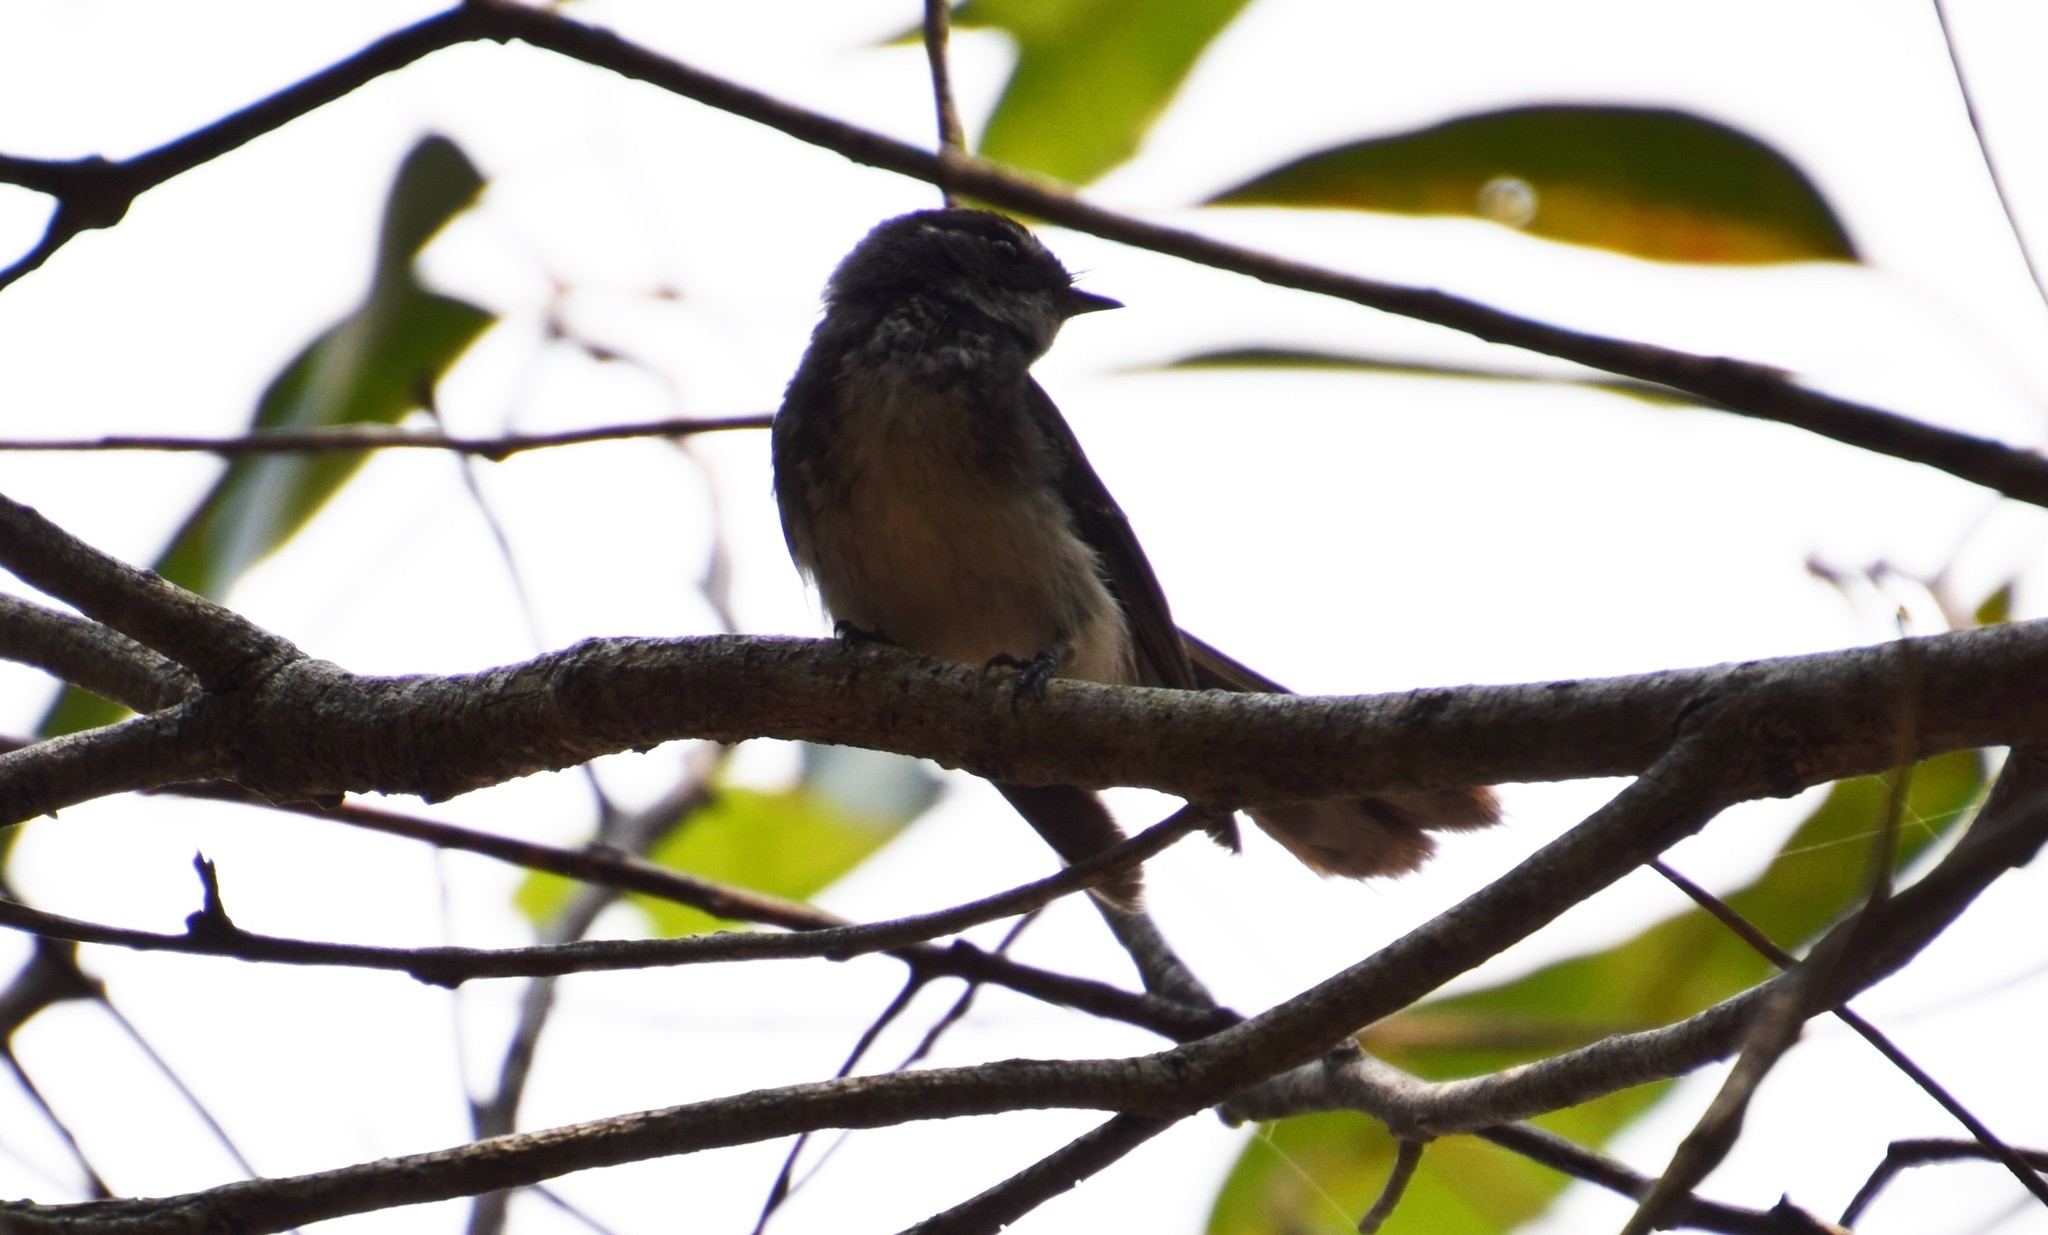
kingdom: Animalia
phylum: Chordata
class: Aves
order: Passeriformes
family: Rhipiduridae
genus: Rhipidura
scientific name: Rhipidura albiscapa
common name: Grey fantail
